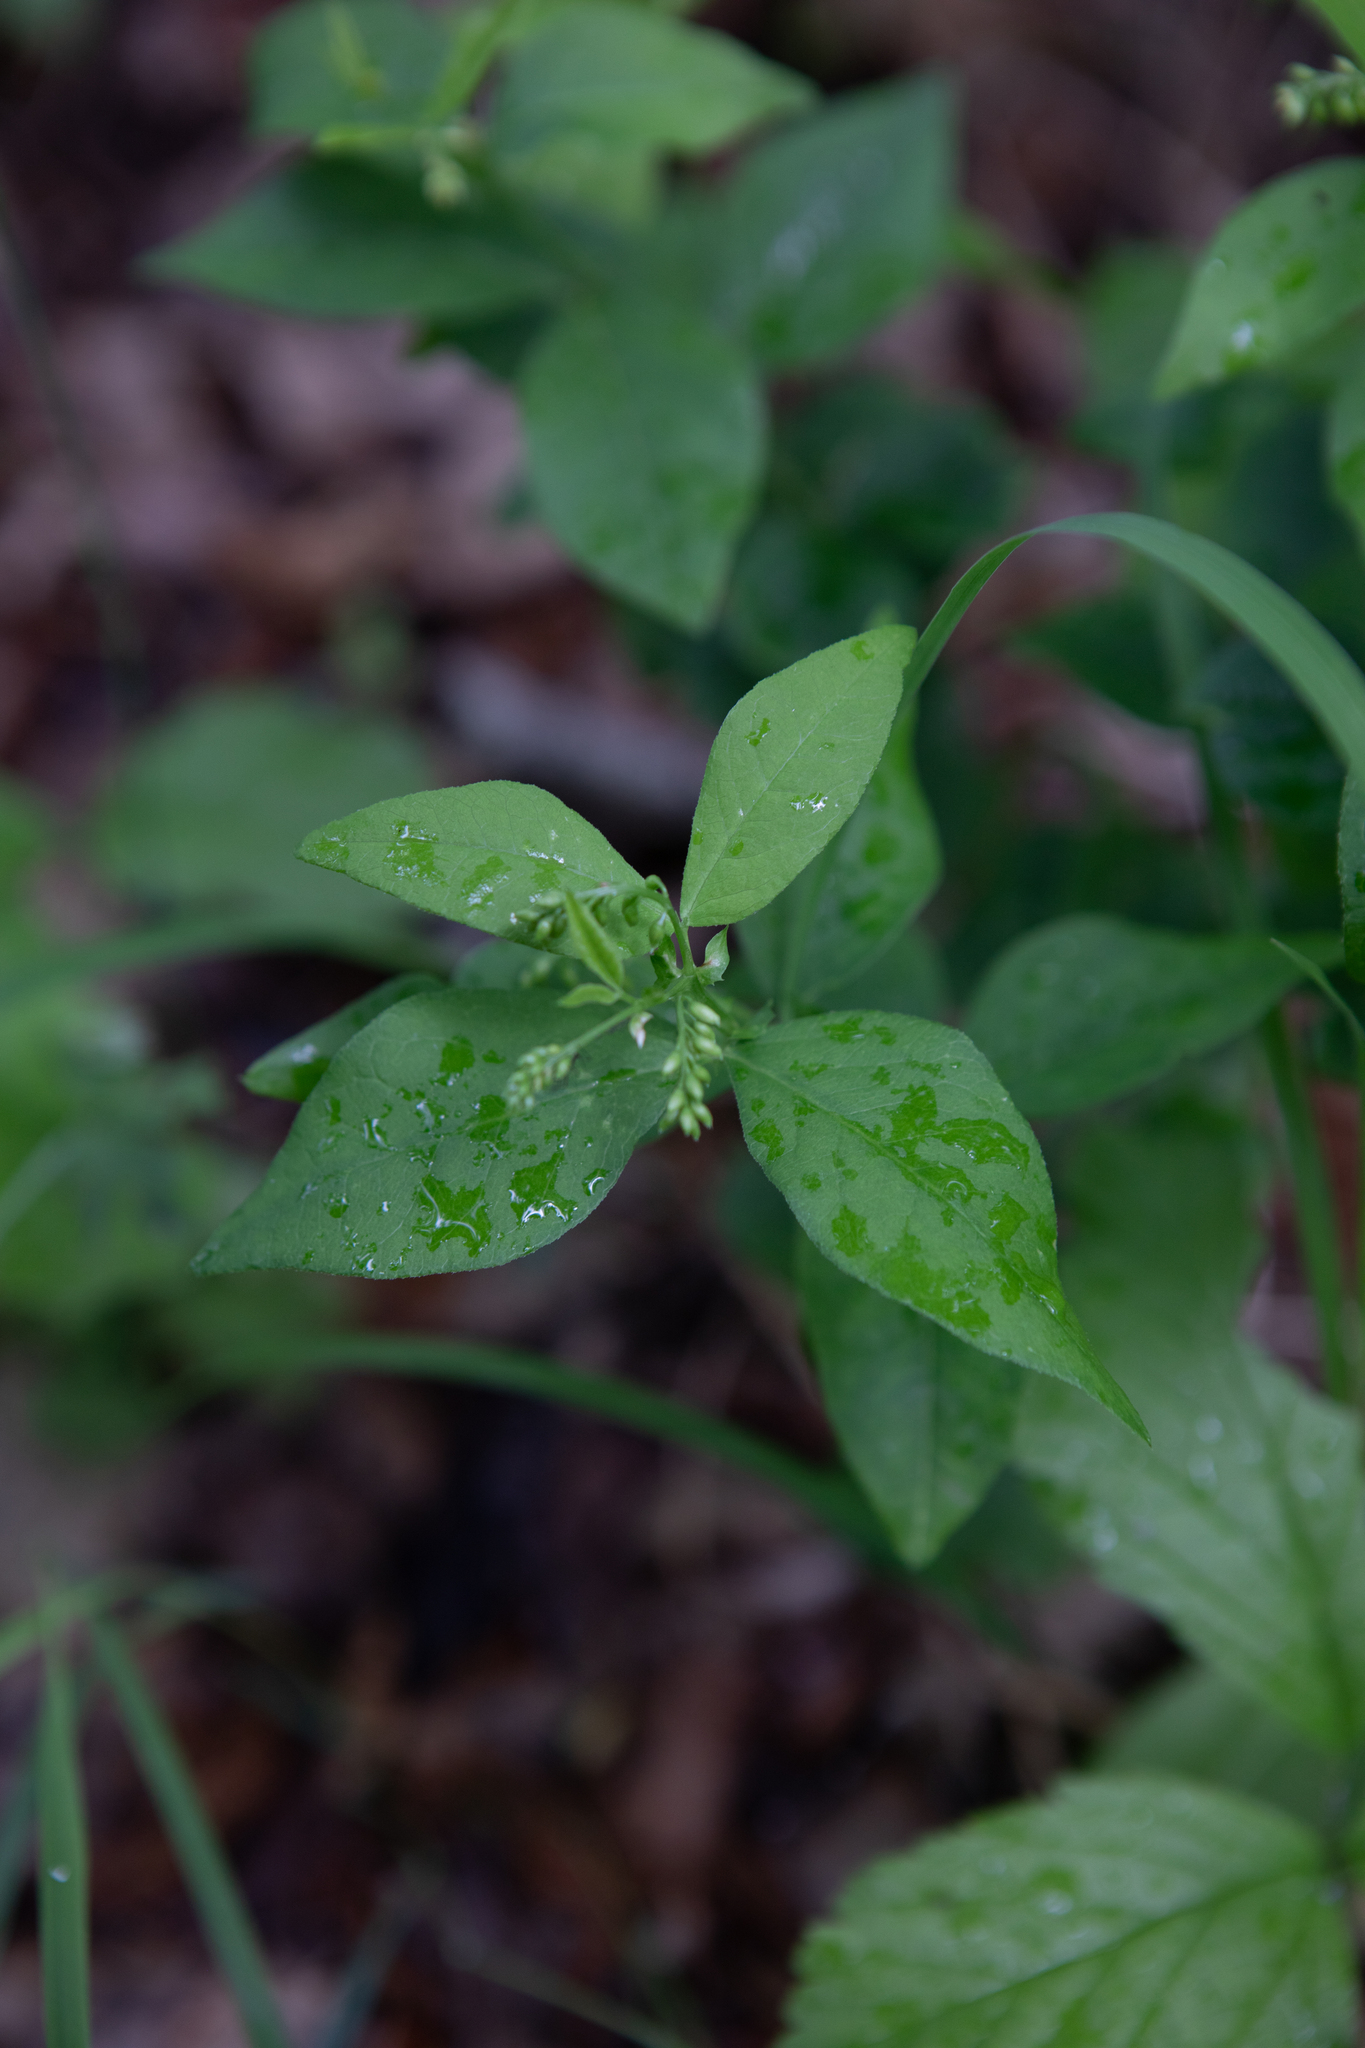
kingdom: Plantae
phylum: Tracheophyta
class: Magnoliopsida
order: Fabales
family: Fabaceae
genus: Vicia
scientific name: Vicia unijuga
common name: Two-leaf vetch
